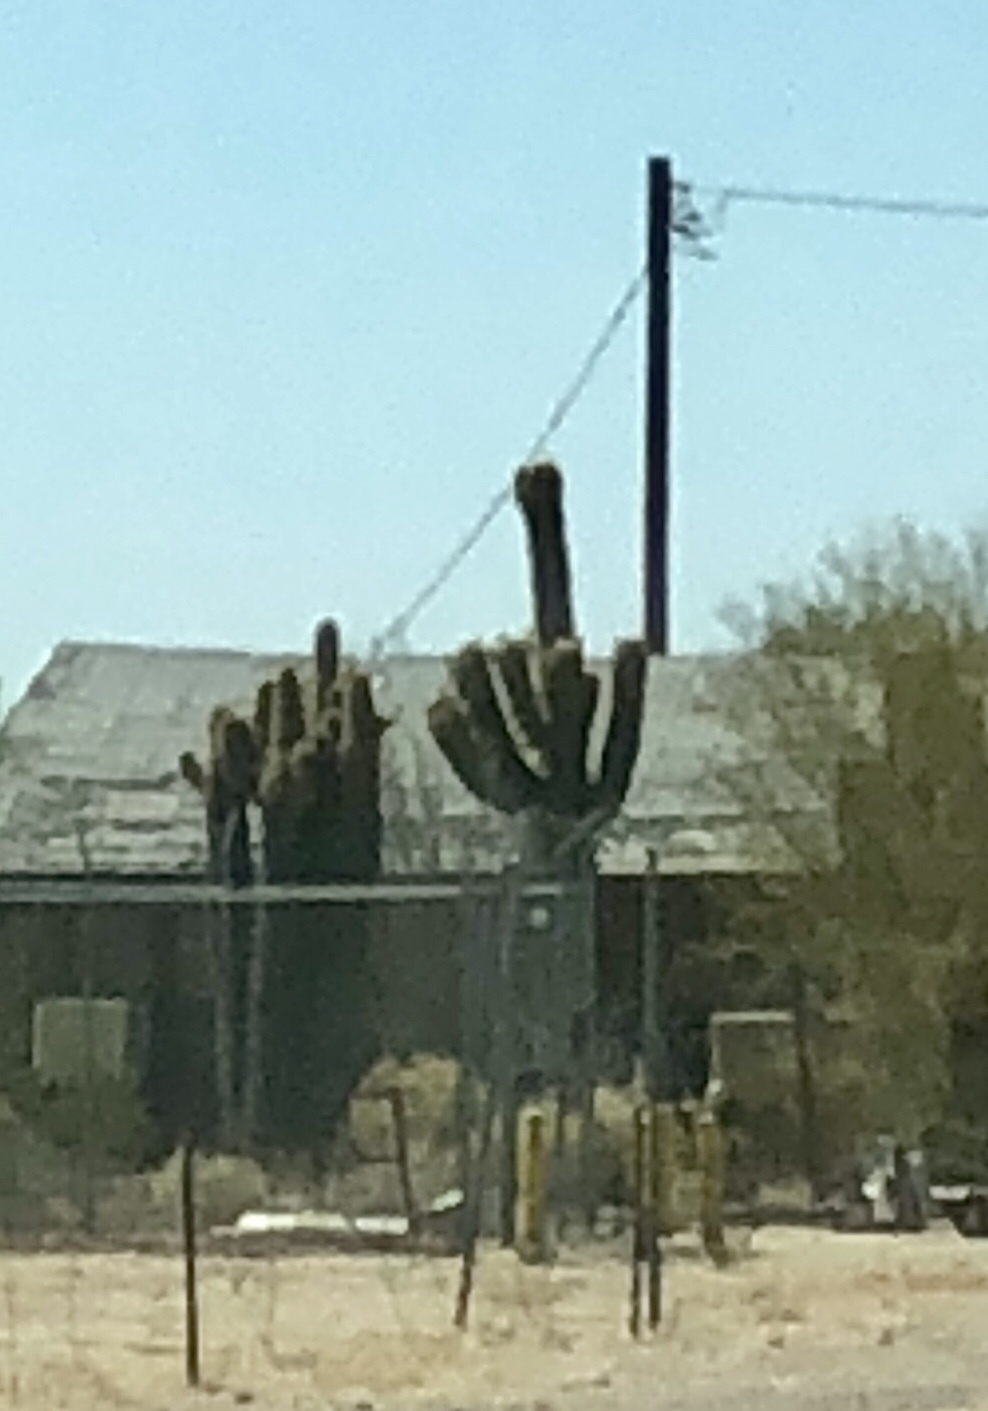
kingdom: Plantae
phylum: Tracheophyta
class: Magnoliopsida
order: Caryophyllales
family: Cactaceae
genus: Carnegiea
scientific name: Carnegiea gigantea
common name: Saguaro
